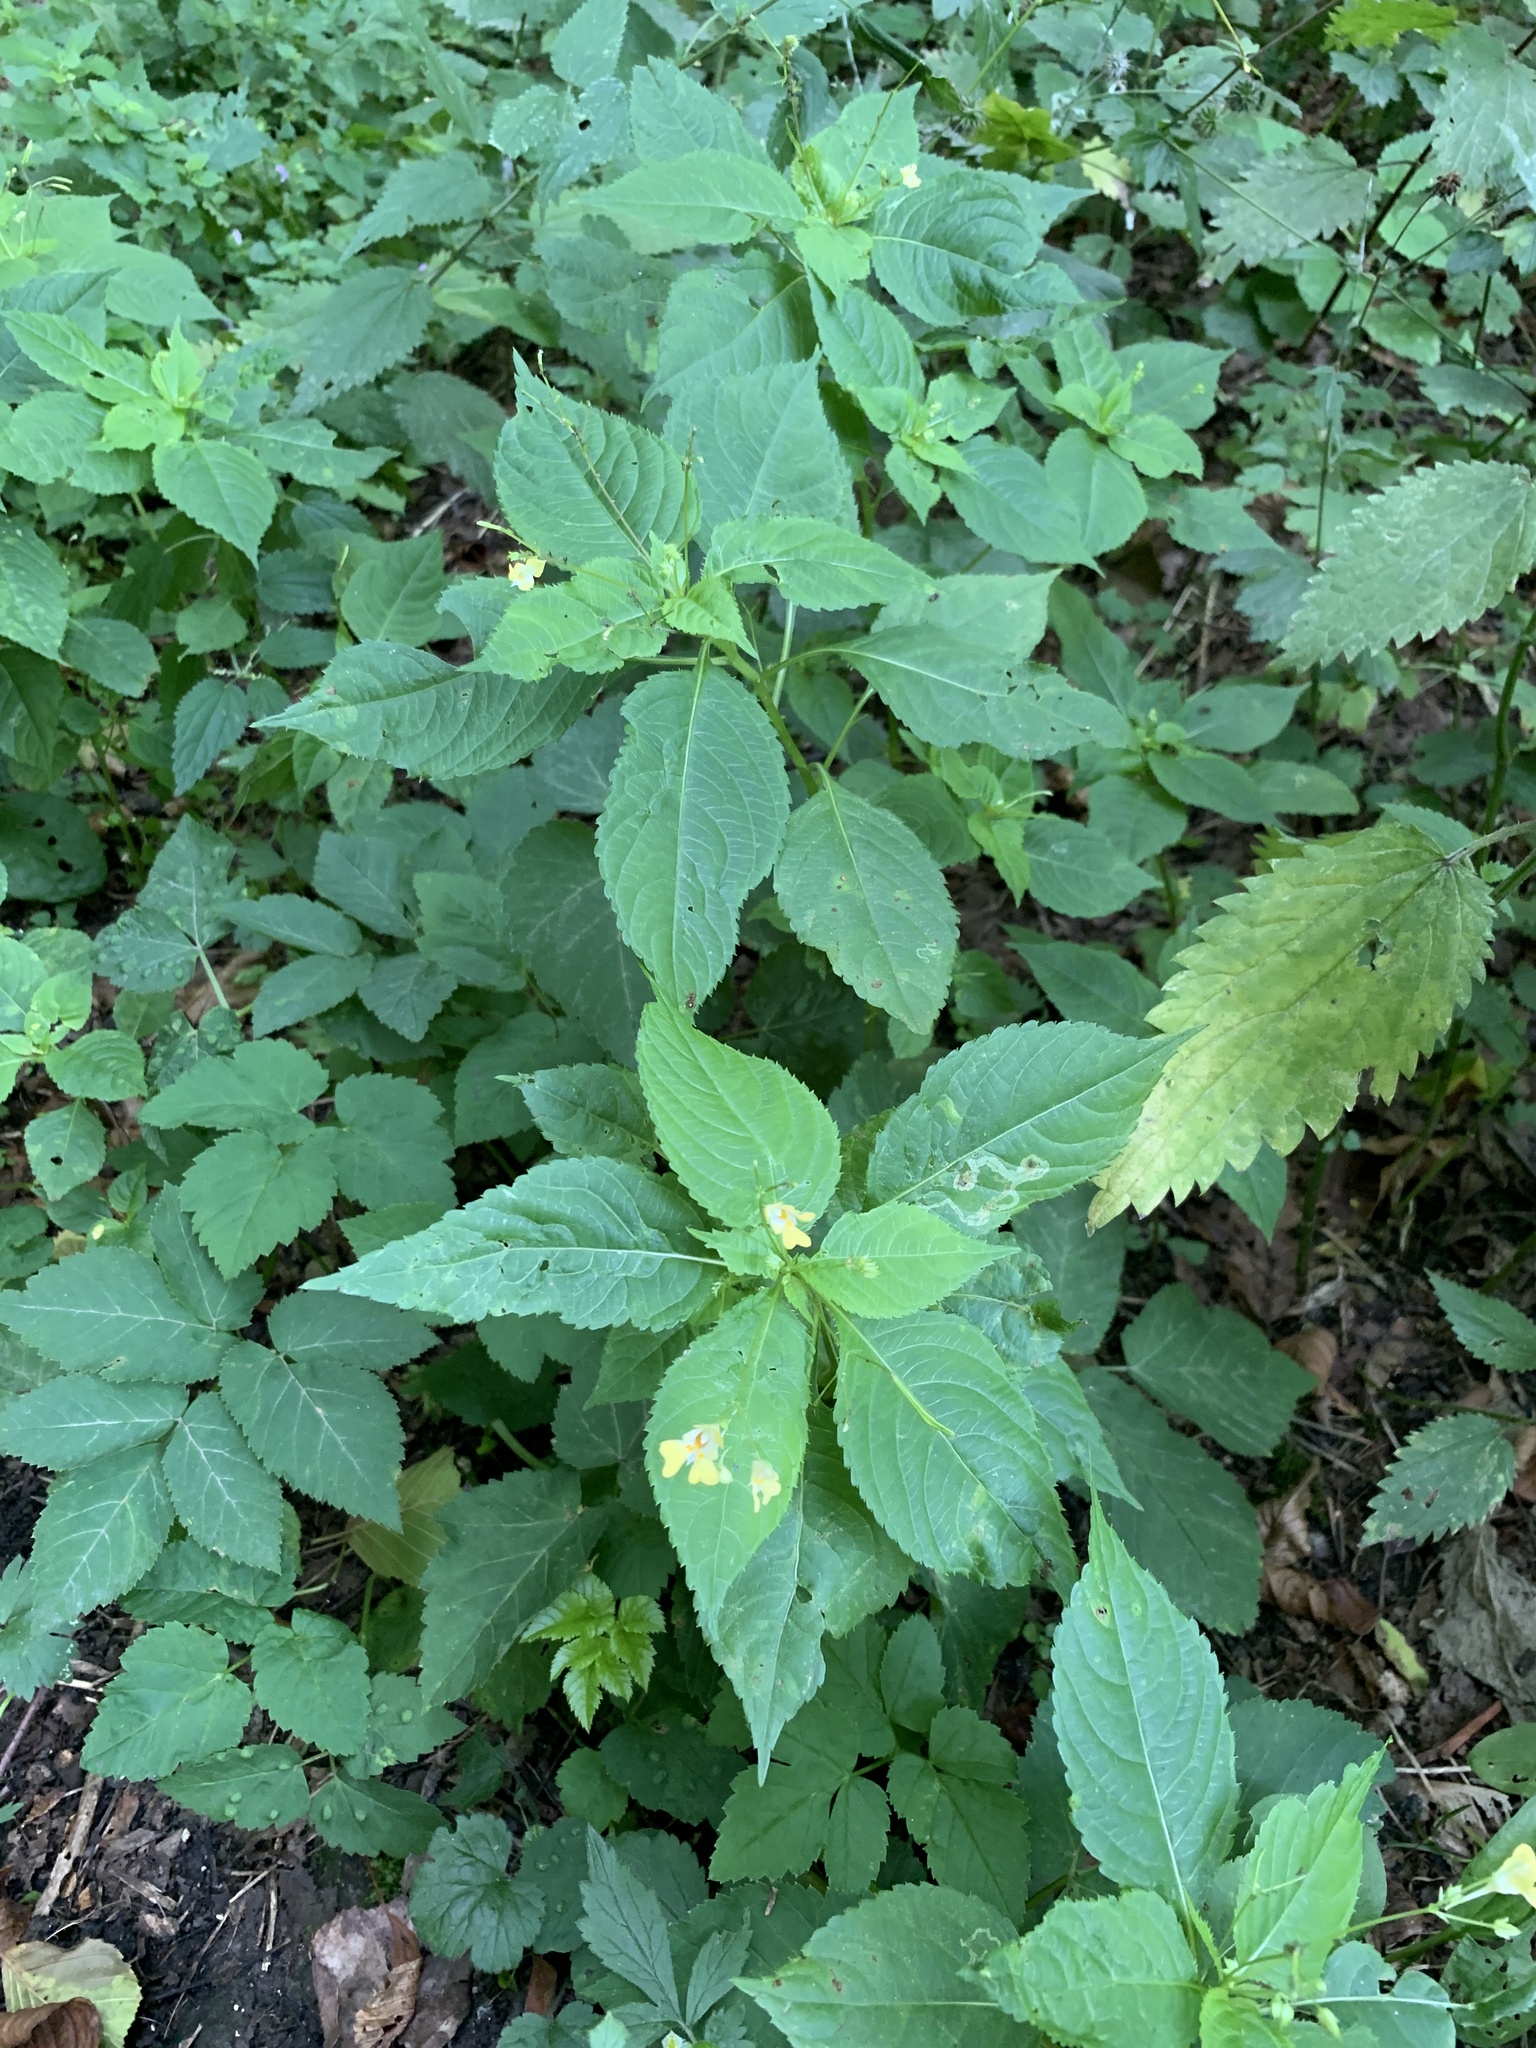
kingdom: Plantae
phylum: Tracheophyta
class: Magnoliopsida
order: Ericales
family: Balsaminaceae
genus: Impatiens
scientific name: Impatiens parviflora
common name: Small balsam
